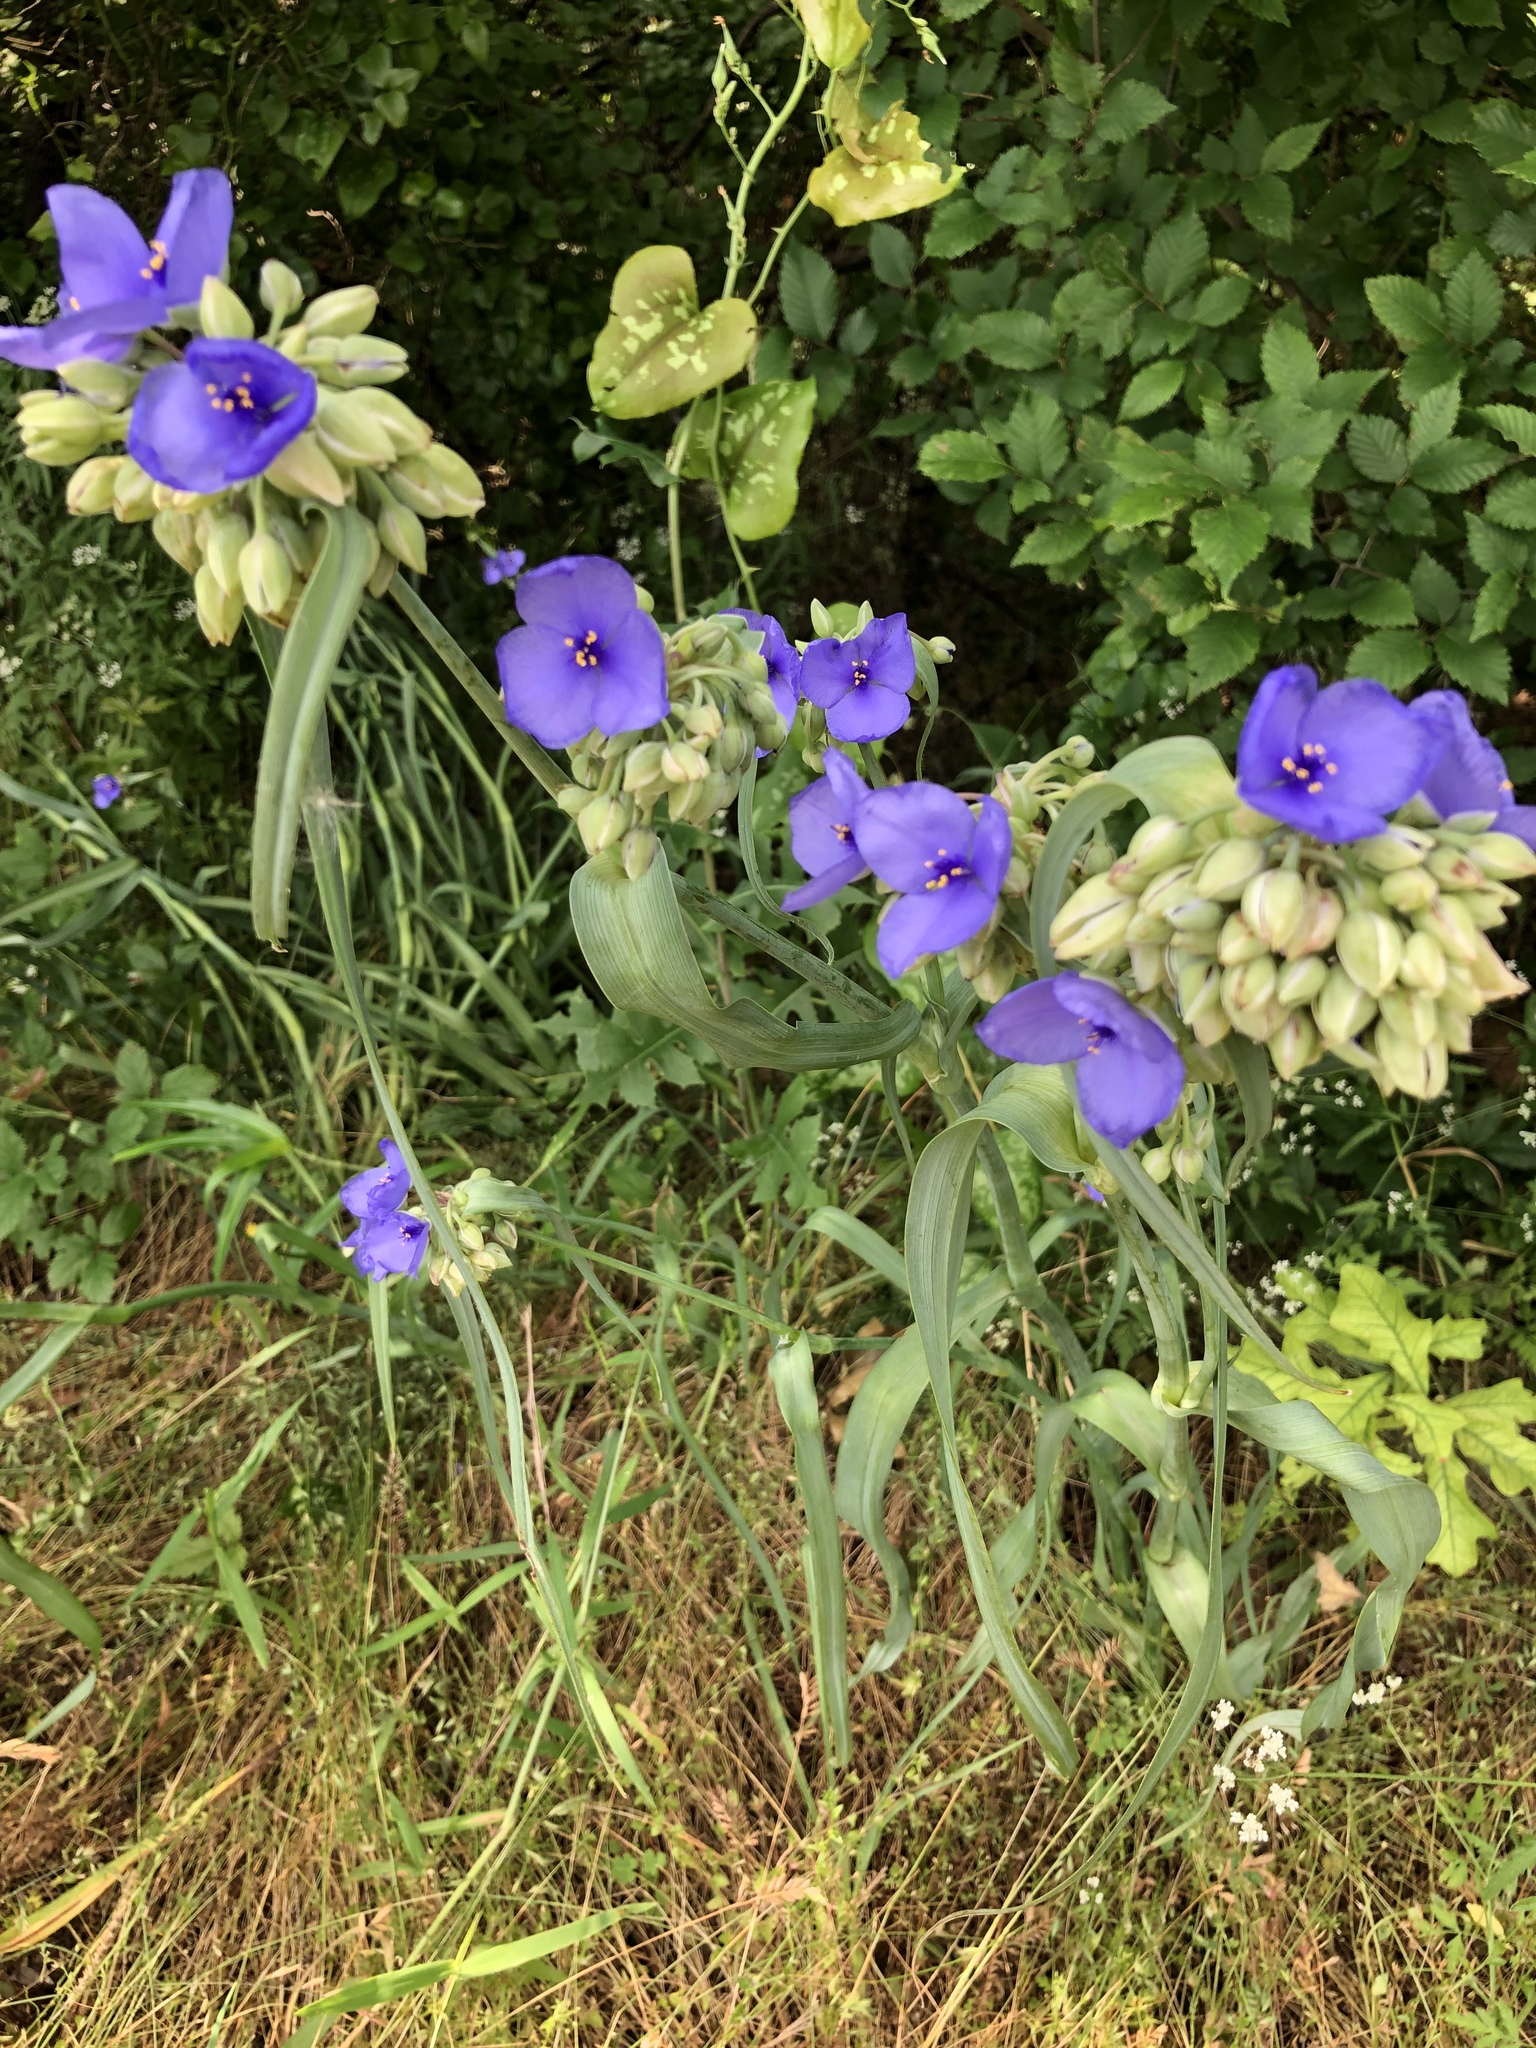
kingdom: Plantae
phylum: Tracheophyta
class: Liliopsida
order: Commelinales
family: Commelinaceae
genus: Tradescantia
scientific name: Tradescantia ohiensis
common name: Ohio spiderwort
